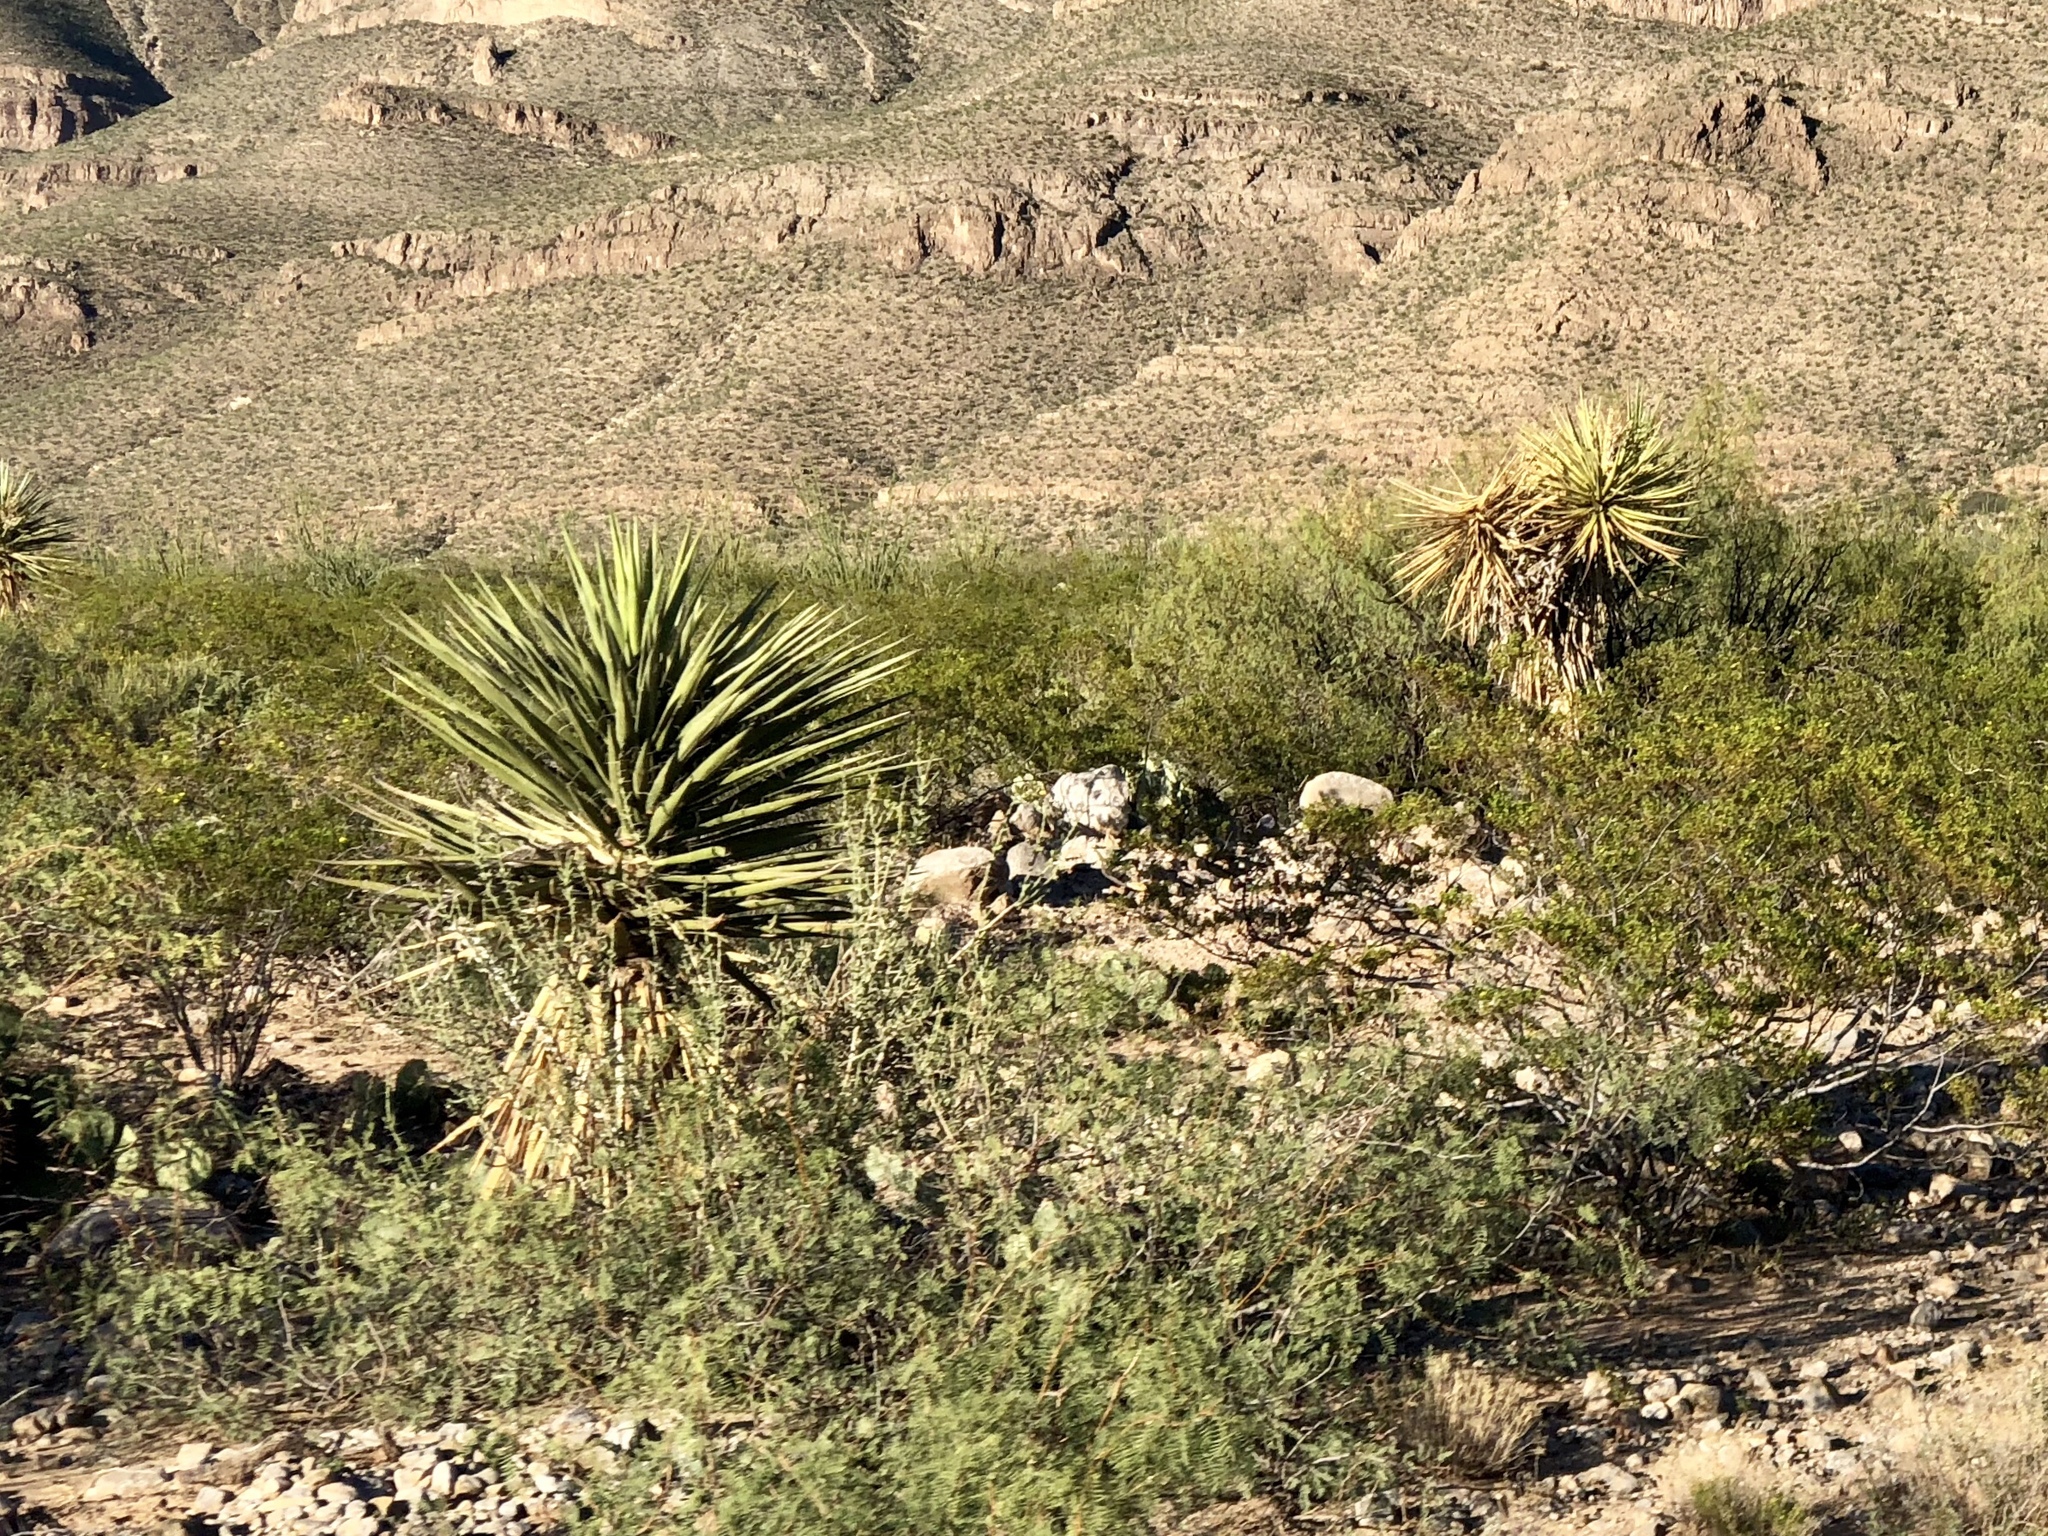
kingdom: Plantae
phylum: Tracheophyta
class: Liliopsida
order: Asparagales
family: Asparagaceae
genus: Yucca
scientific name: Yucca treculiana
